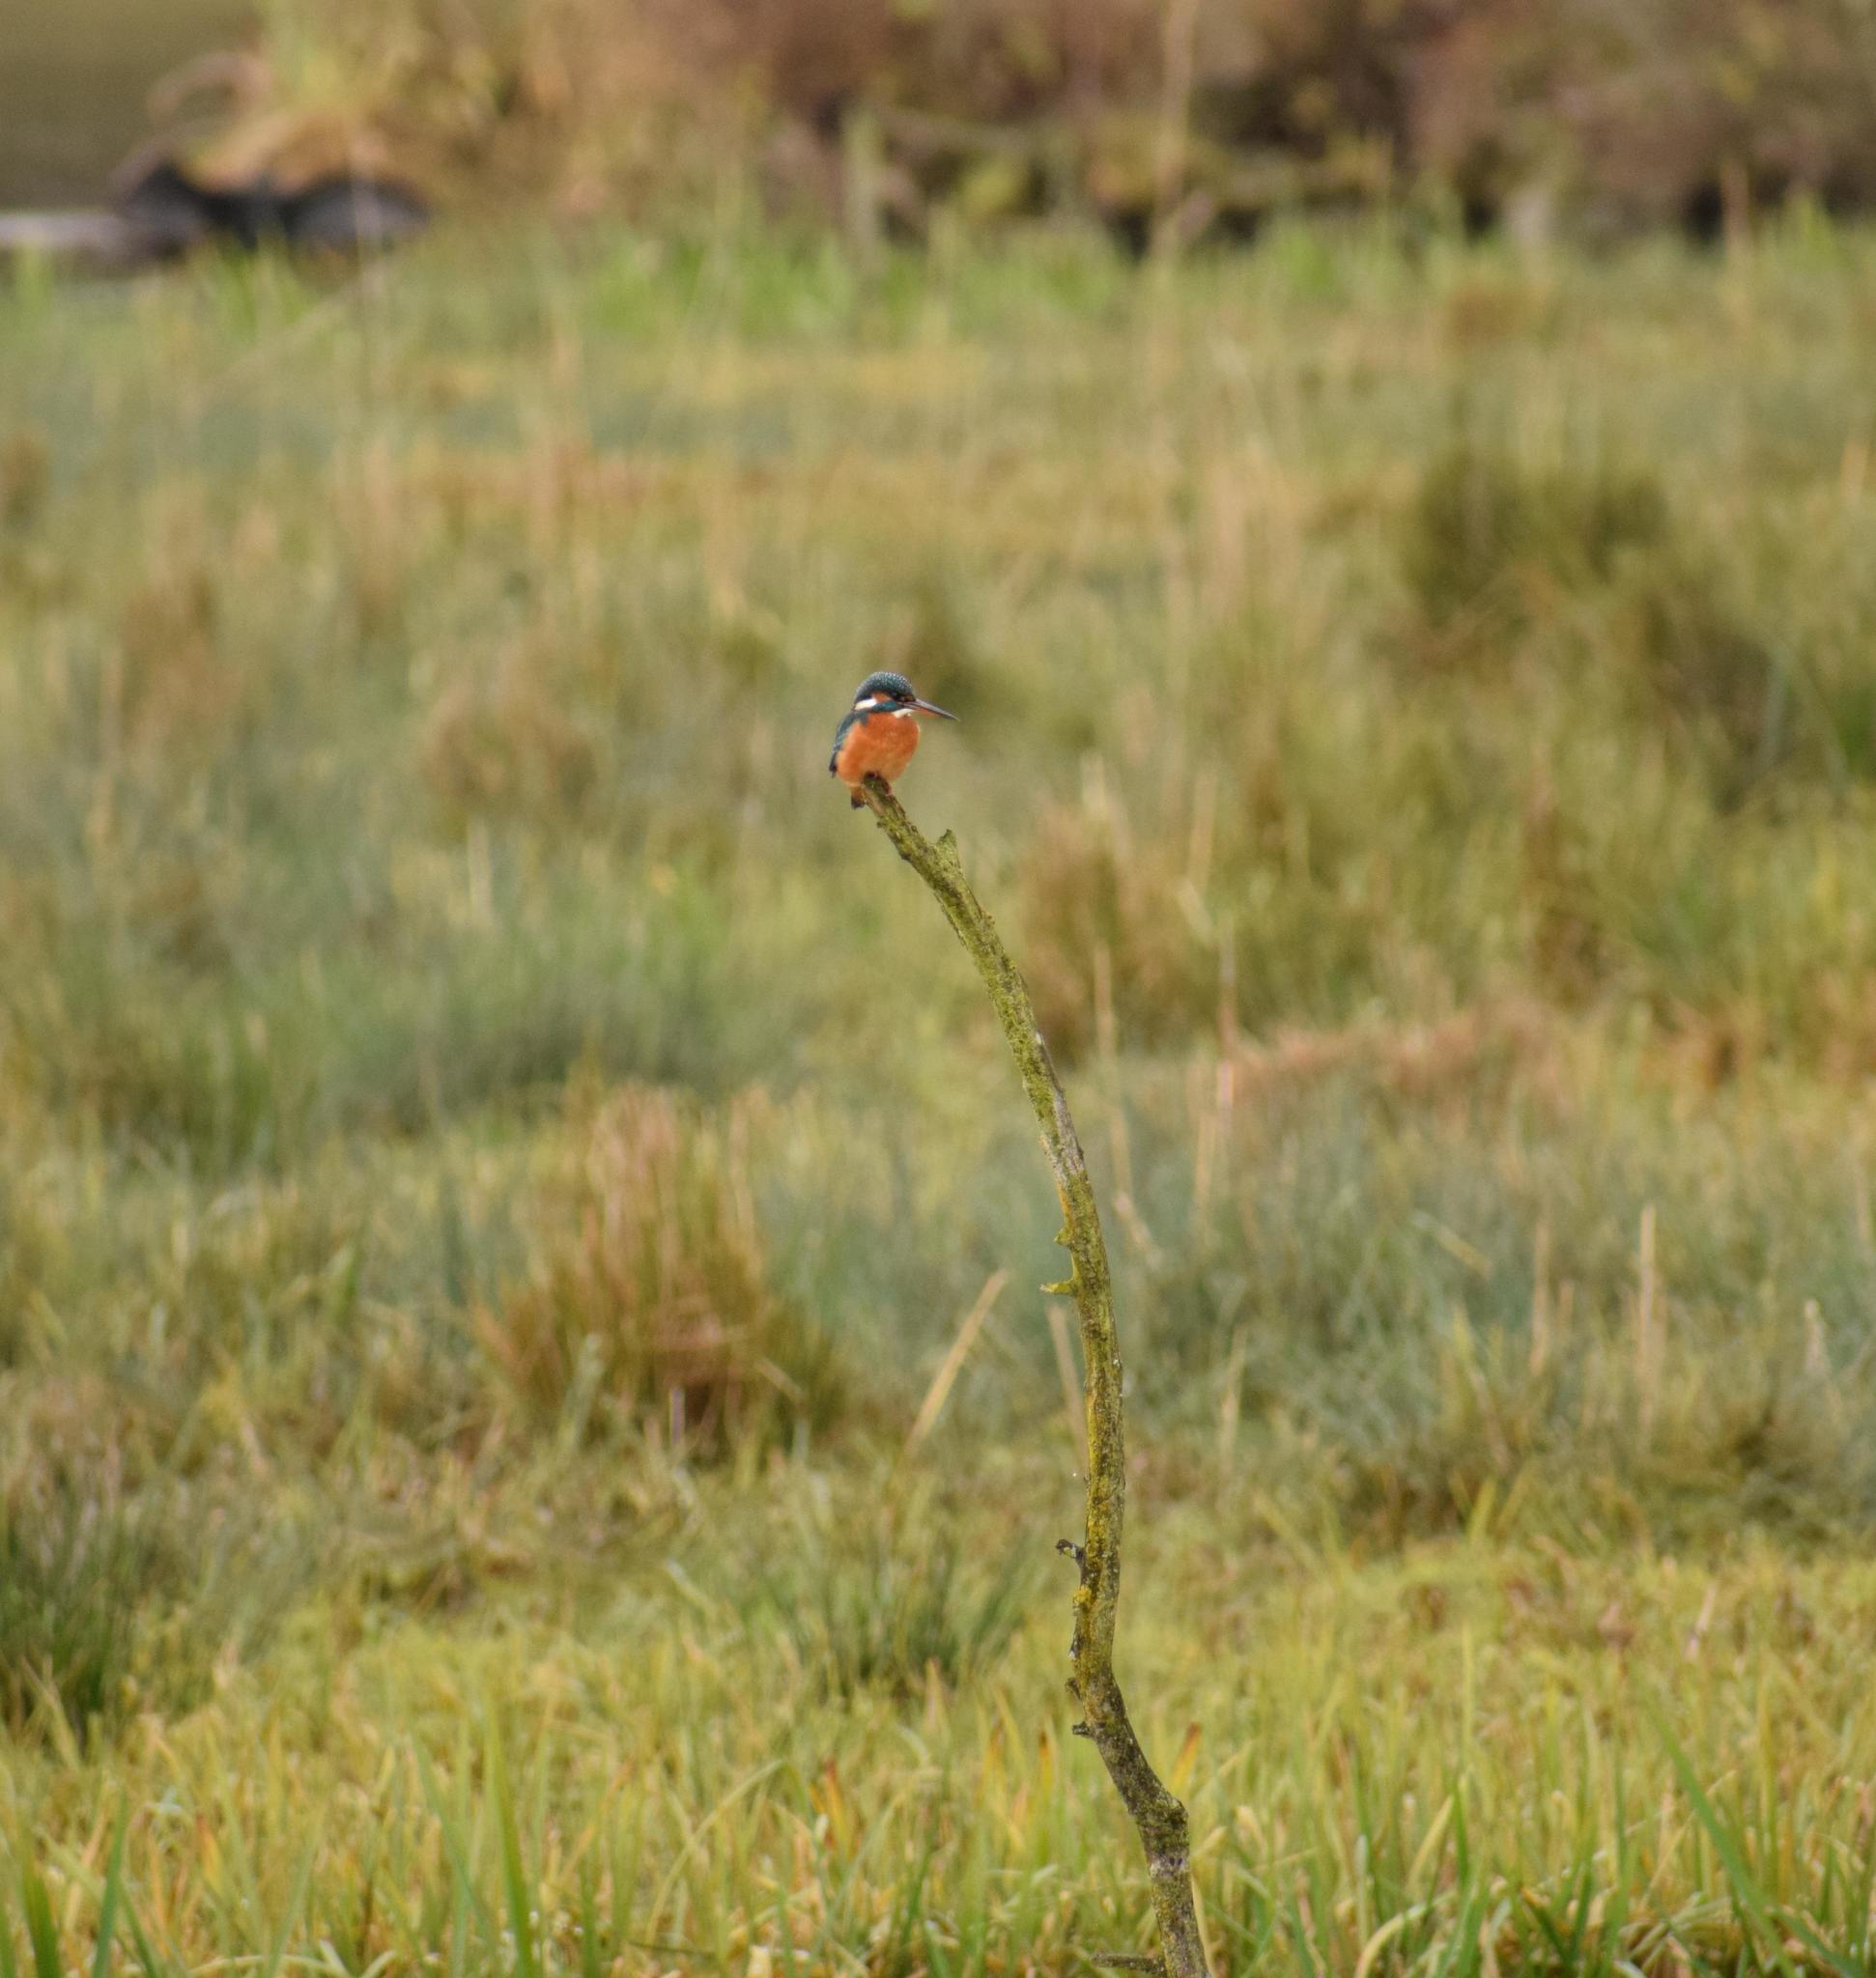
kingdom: Animalia
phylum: Chordata
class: Aves
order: Coraciiformes
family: Alcedinidae
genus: Alcedo
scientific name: Alcedo atthis
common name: Common kingfisher
